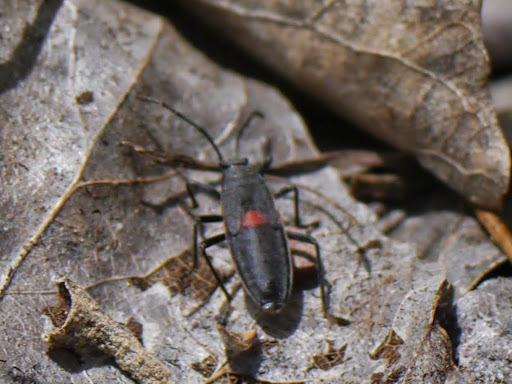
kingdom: Animalia
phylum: Arthropoda
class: Insecta
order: Hemiptera
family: Largidae
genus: Stenomacra
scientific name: Stenomacra marginella
